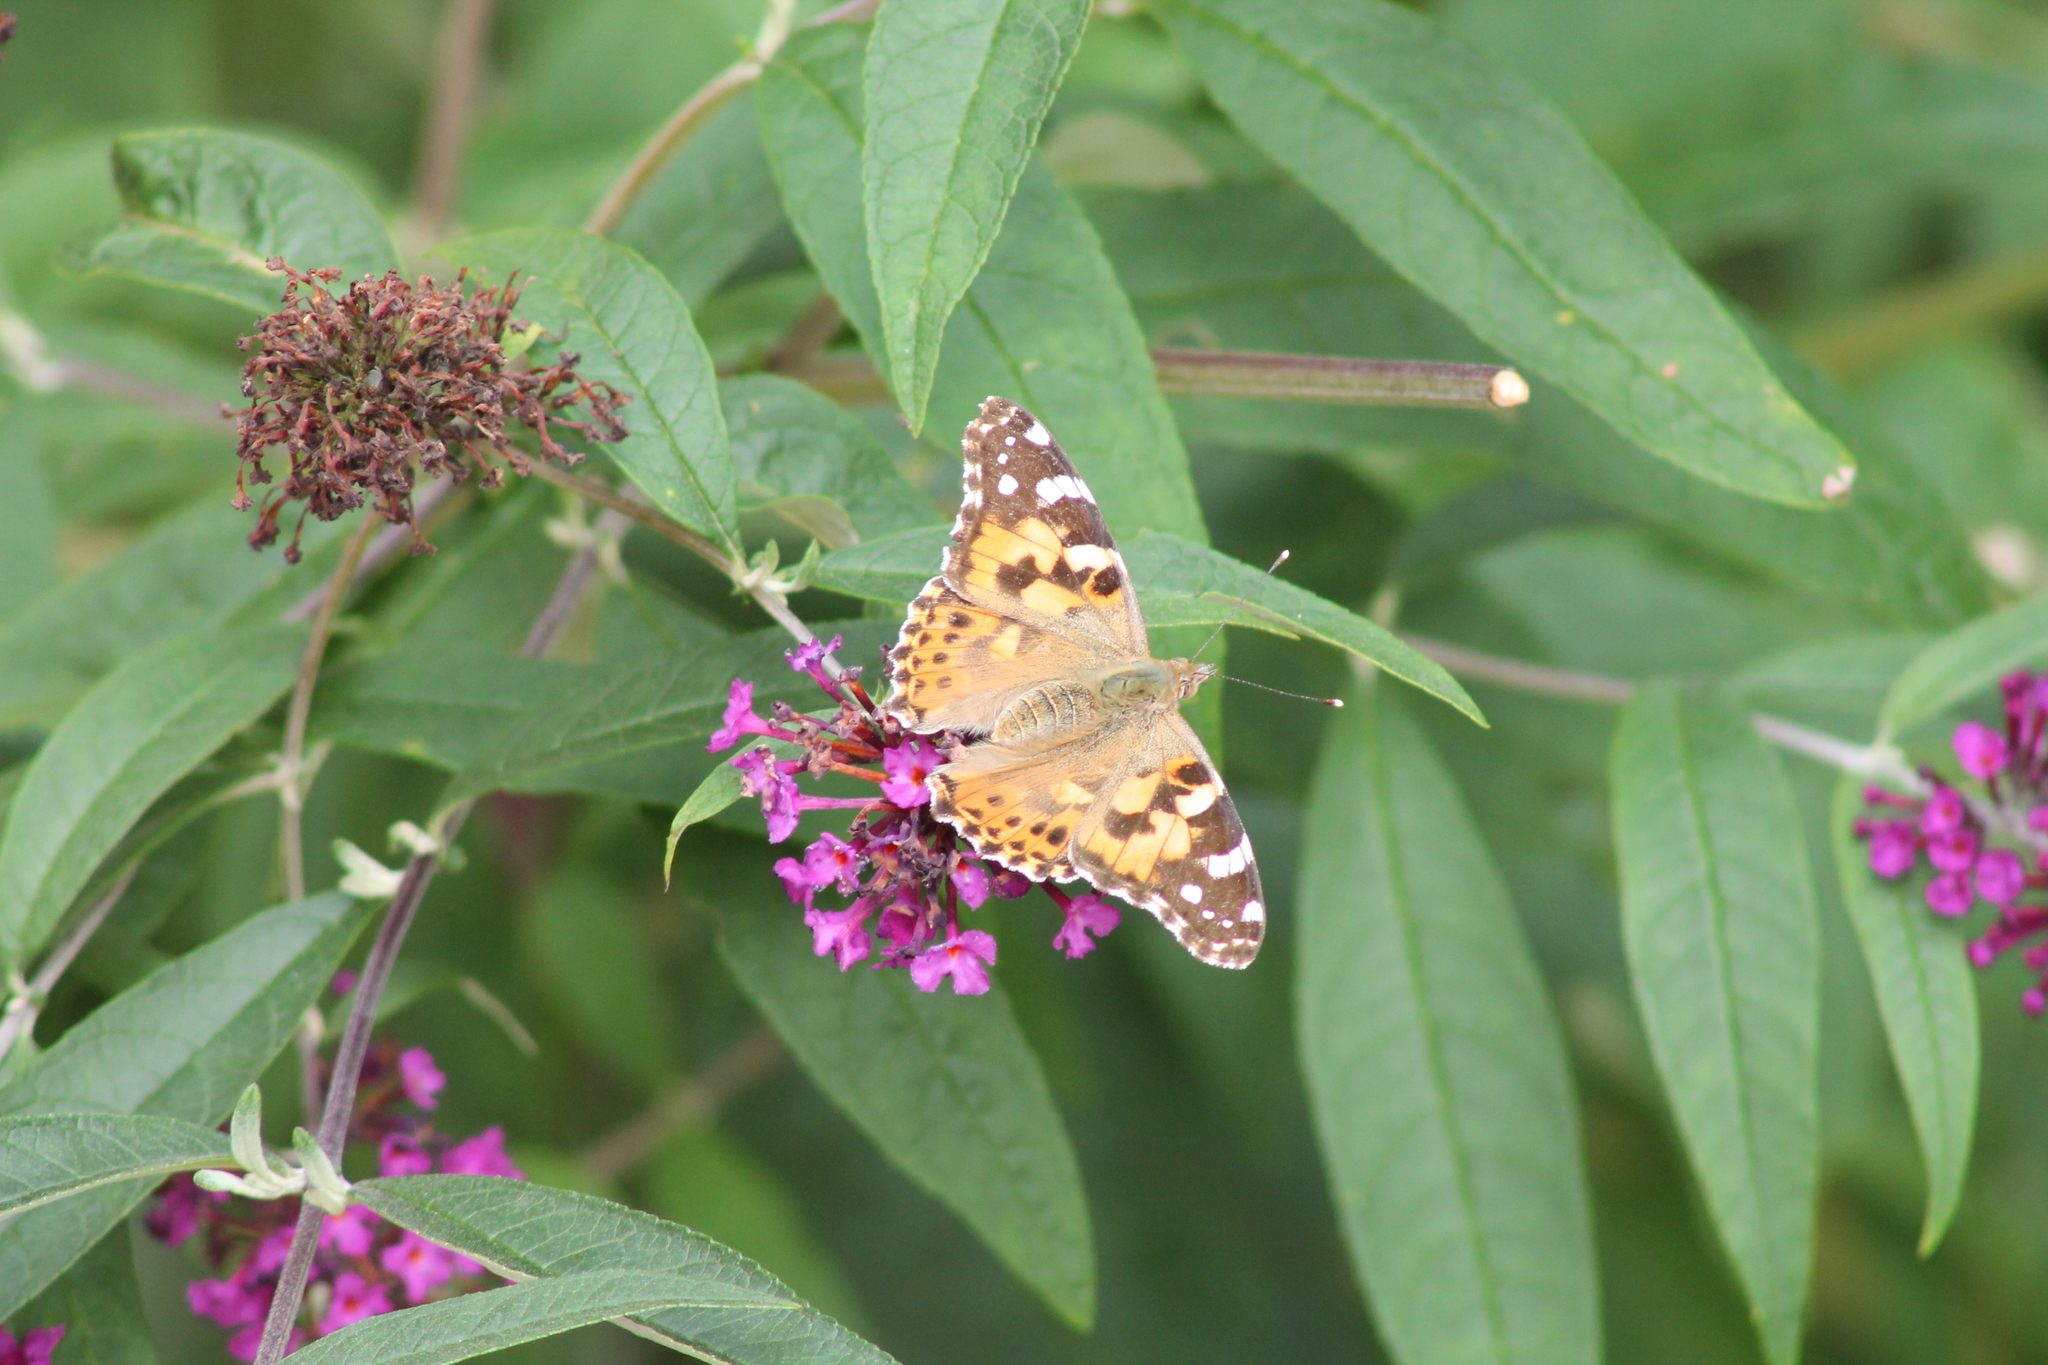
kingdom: Animalia
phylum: Arthropoda
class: Insecta
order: Lepidoptera
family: Nymphalidae
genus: Vanessa
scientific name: Vanessa cardui
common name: Painted lady
